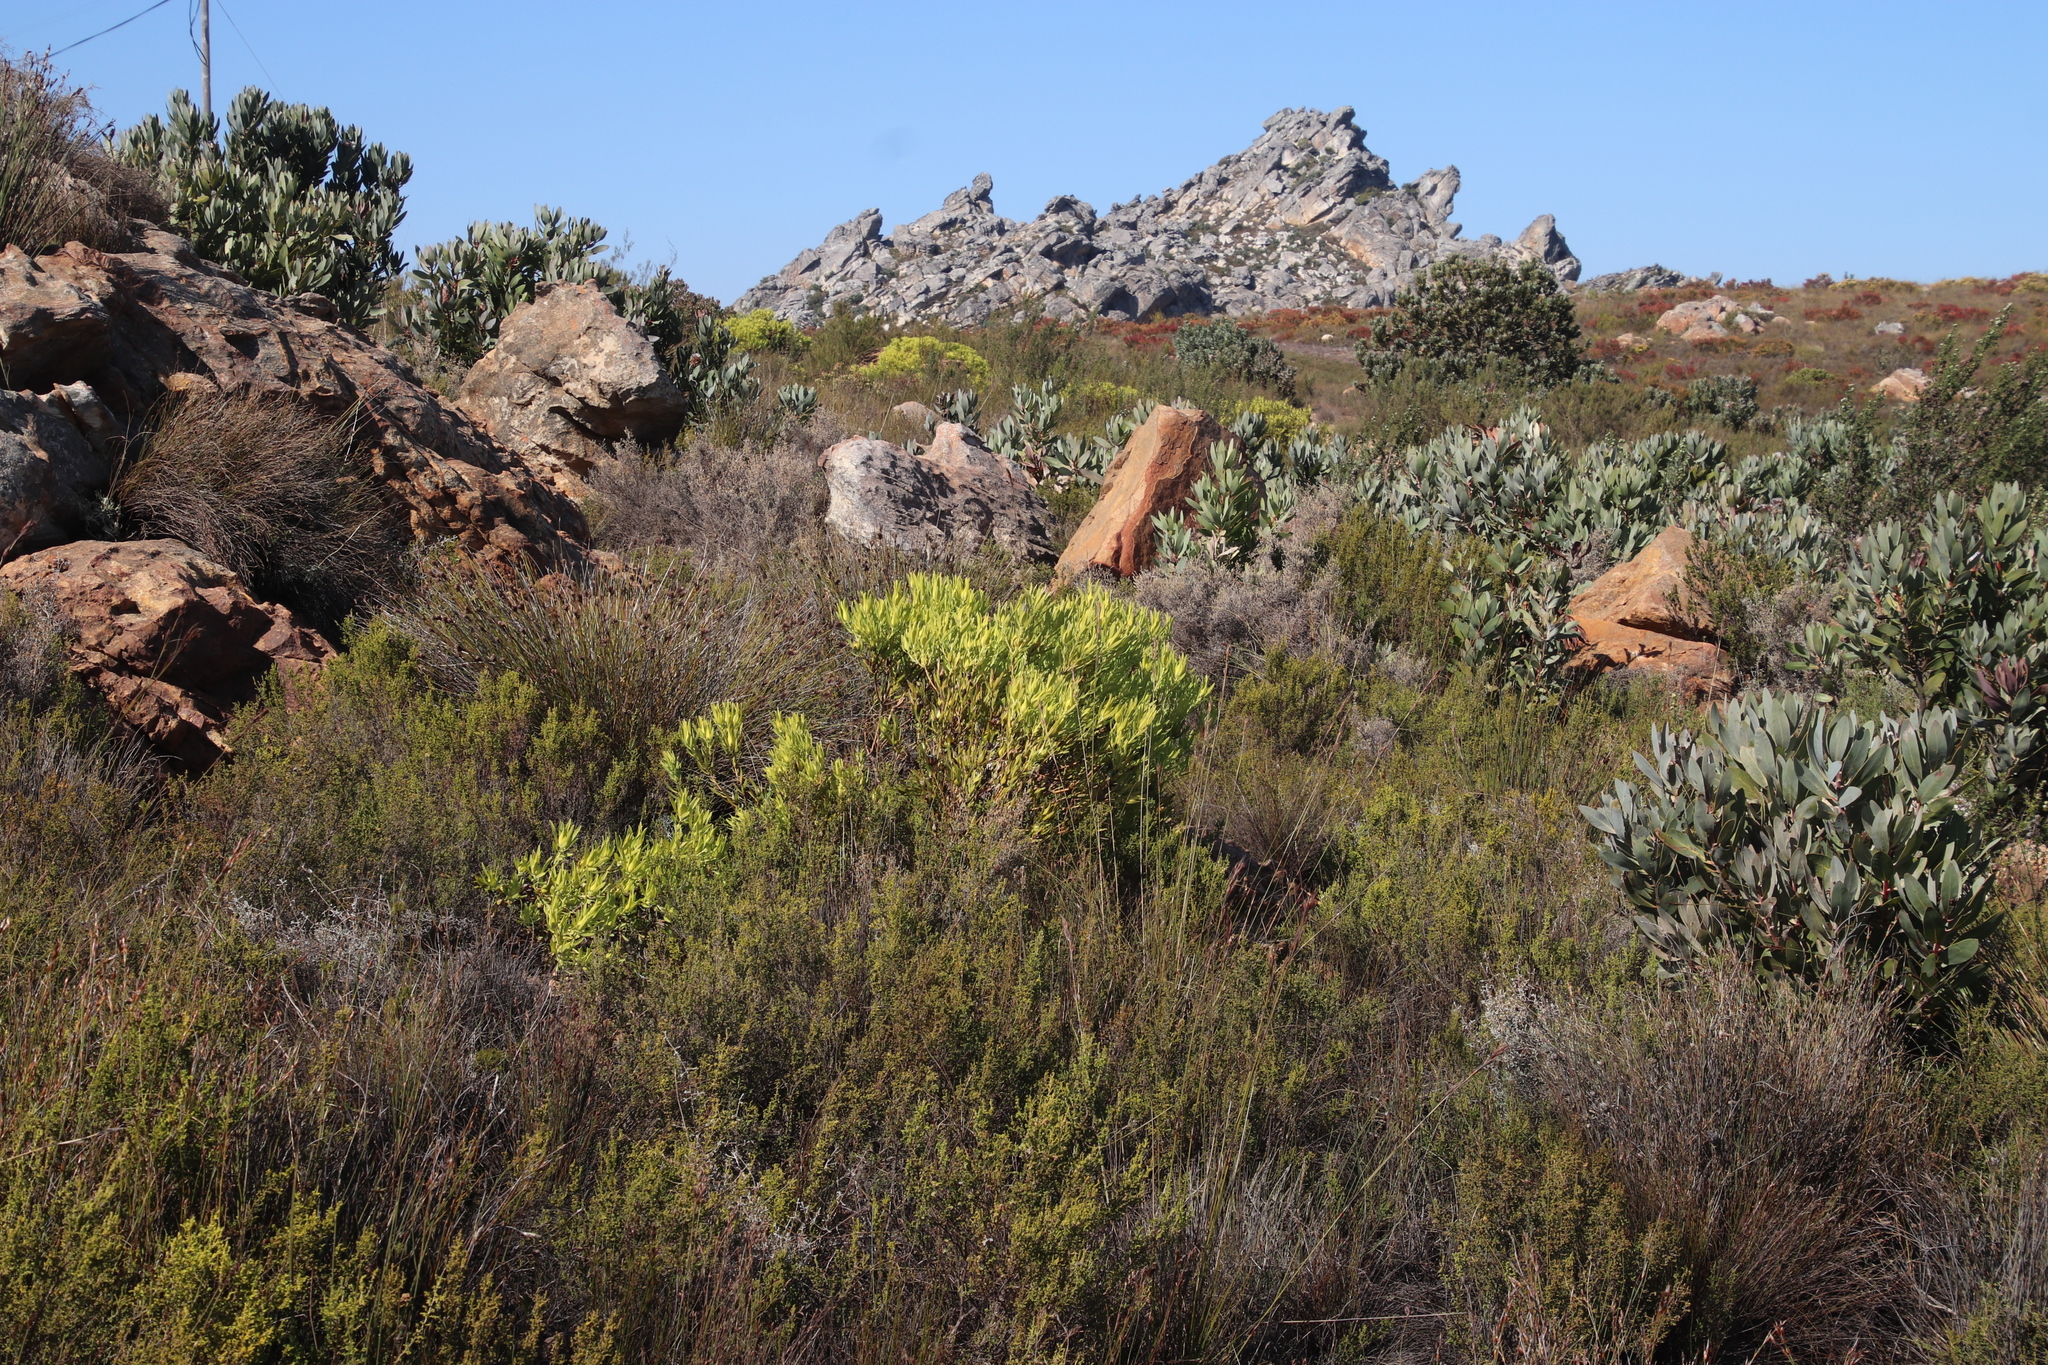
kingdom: Plantae
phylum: Tracheophyta
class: Magnoliopsida
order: Proteales
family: Proteaceae
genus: Leucadendron
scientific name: Leucadendron salignum
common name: Common sunshine conebush
